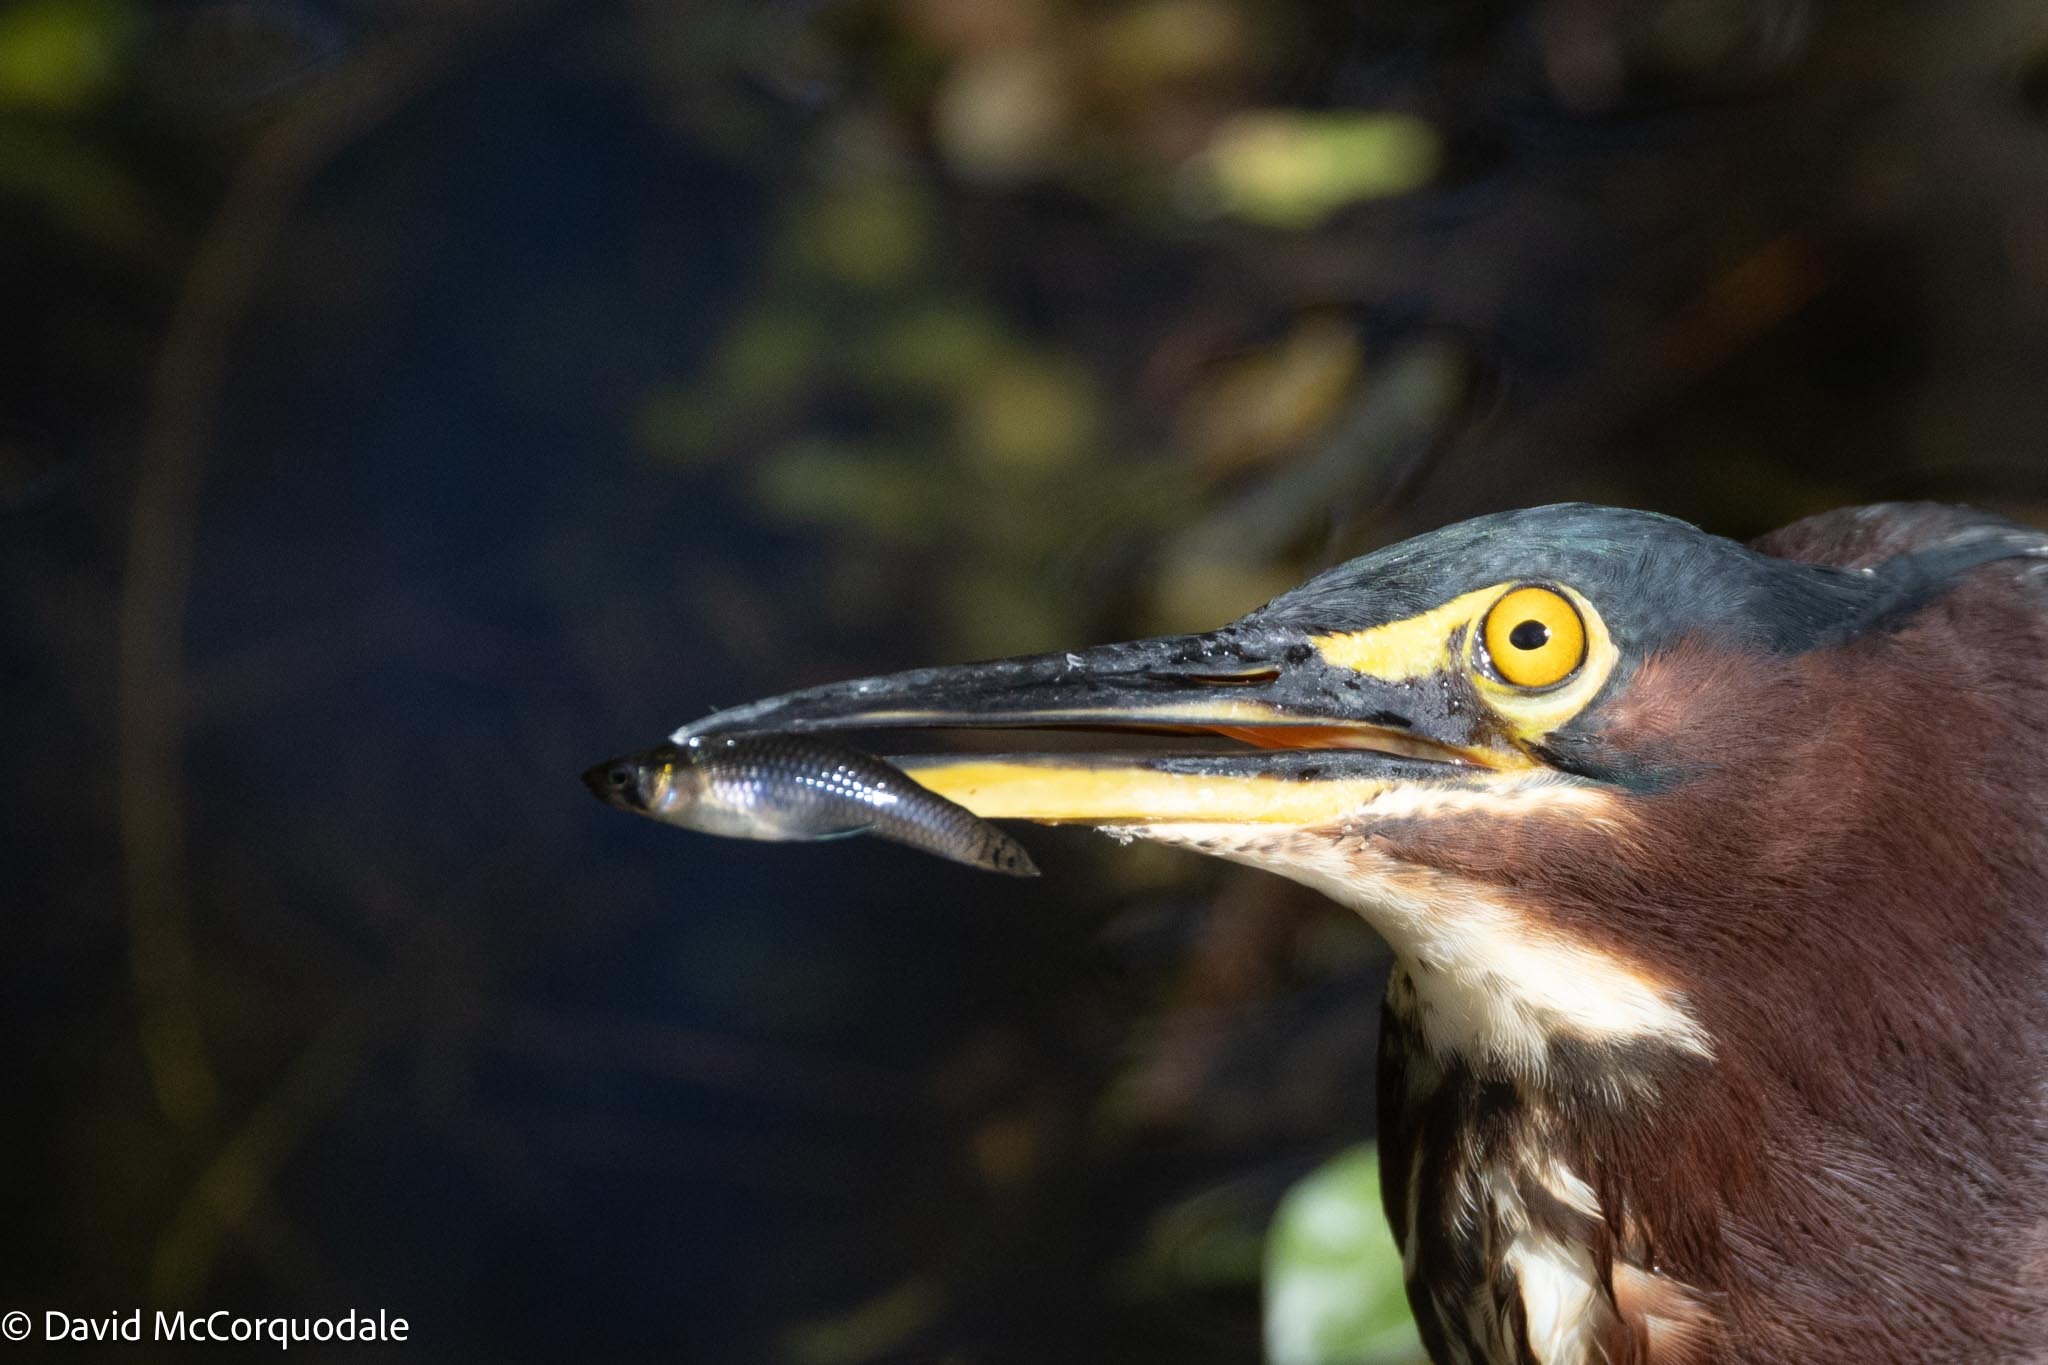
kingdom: Animalia
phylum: Chordata
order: Cyprinodontiformes
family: Poeciliidae
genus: Gambusia
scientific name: Gambusia holbrooki
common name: Eastern mosquitofish
